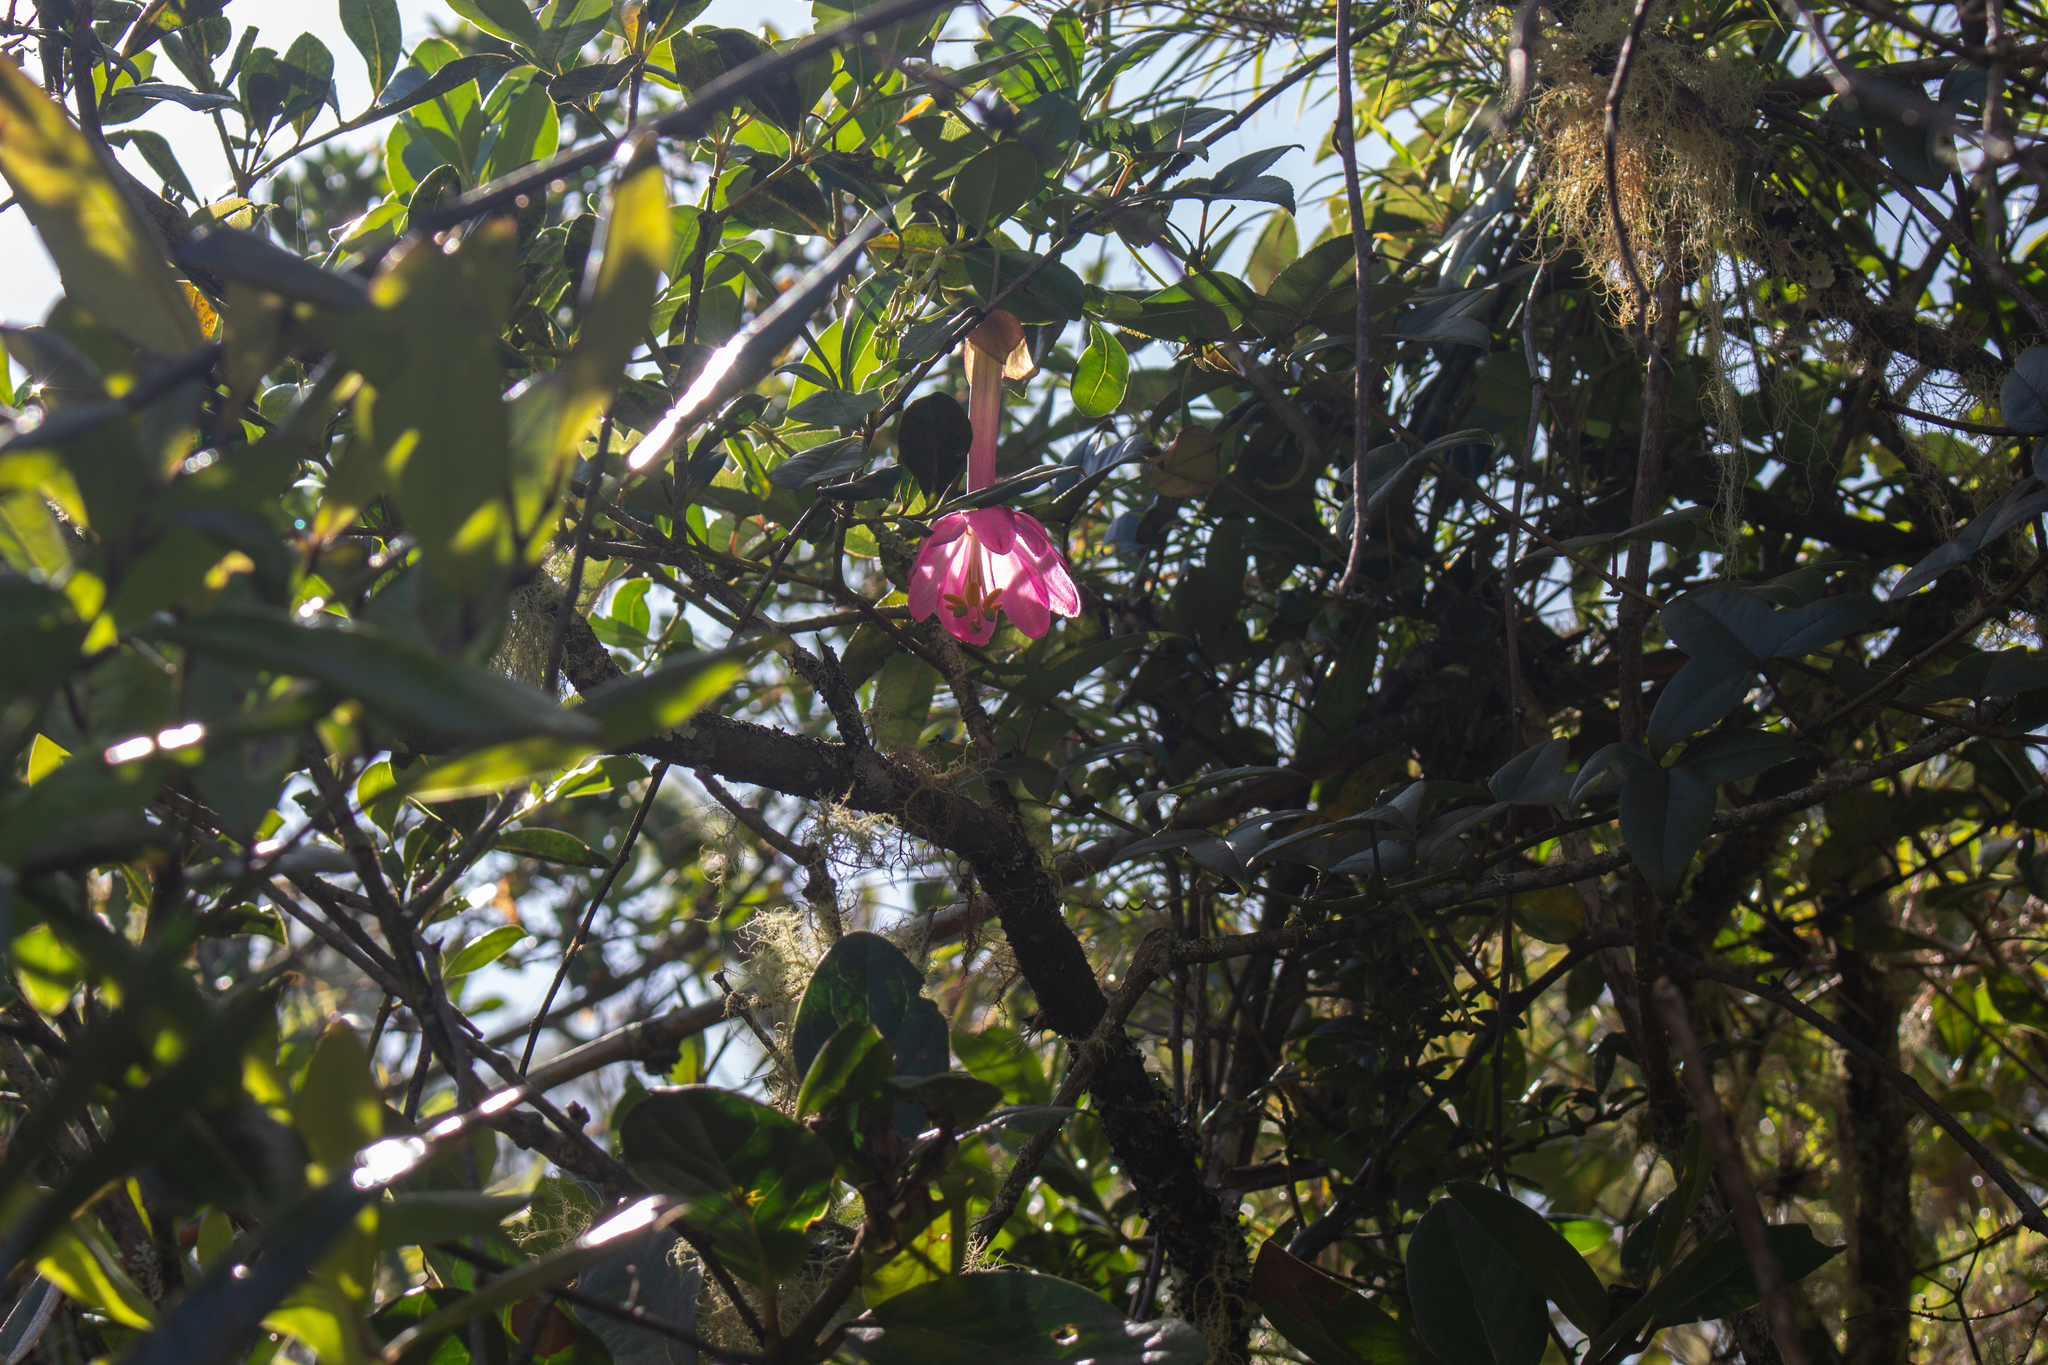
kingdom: Plantae
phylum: Tracheophyta
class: Magnoliopsida
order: Malpighiales
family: Passifloraceae
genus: Passiflora
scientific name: Passiflora cumbalensis
